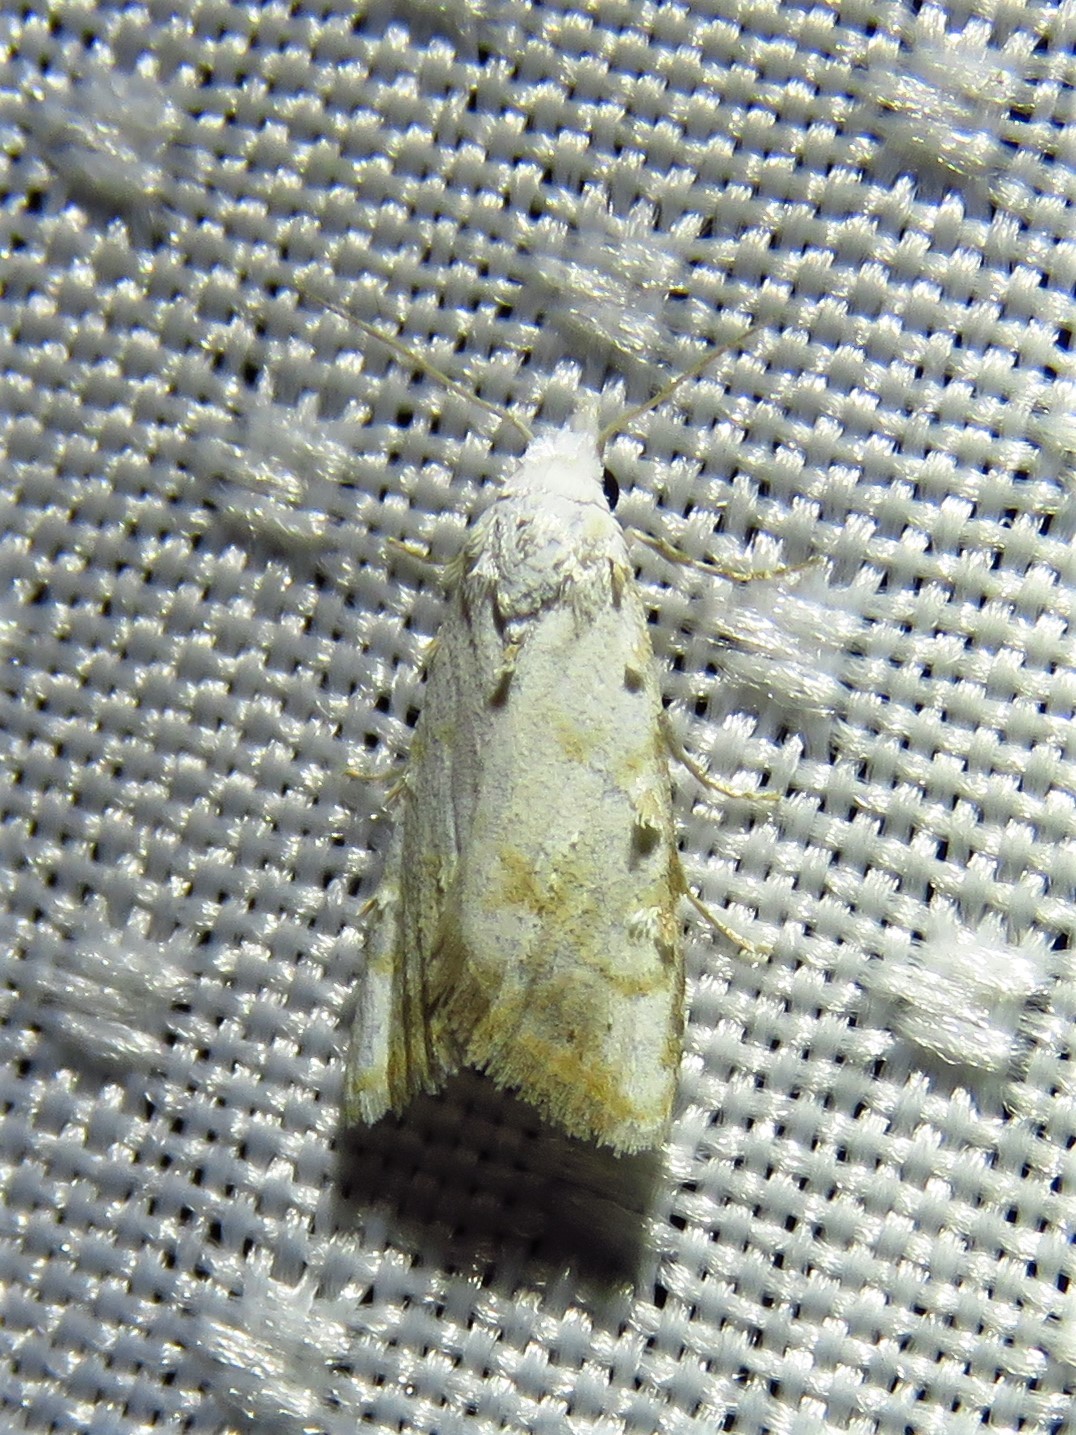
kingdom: Animalia
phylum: Arthropoda
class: Insecta
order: Lepidoptera
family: Nolidae
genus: Nola
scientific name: Nola cereella
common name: Sorghum webworm moth
